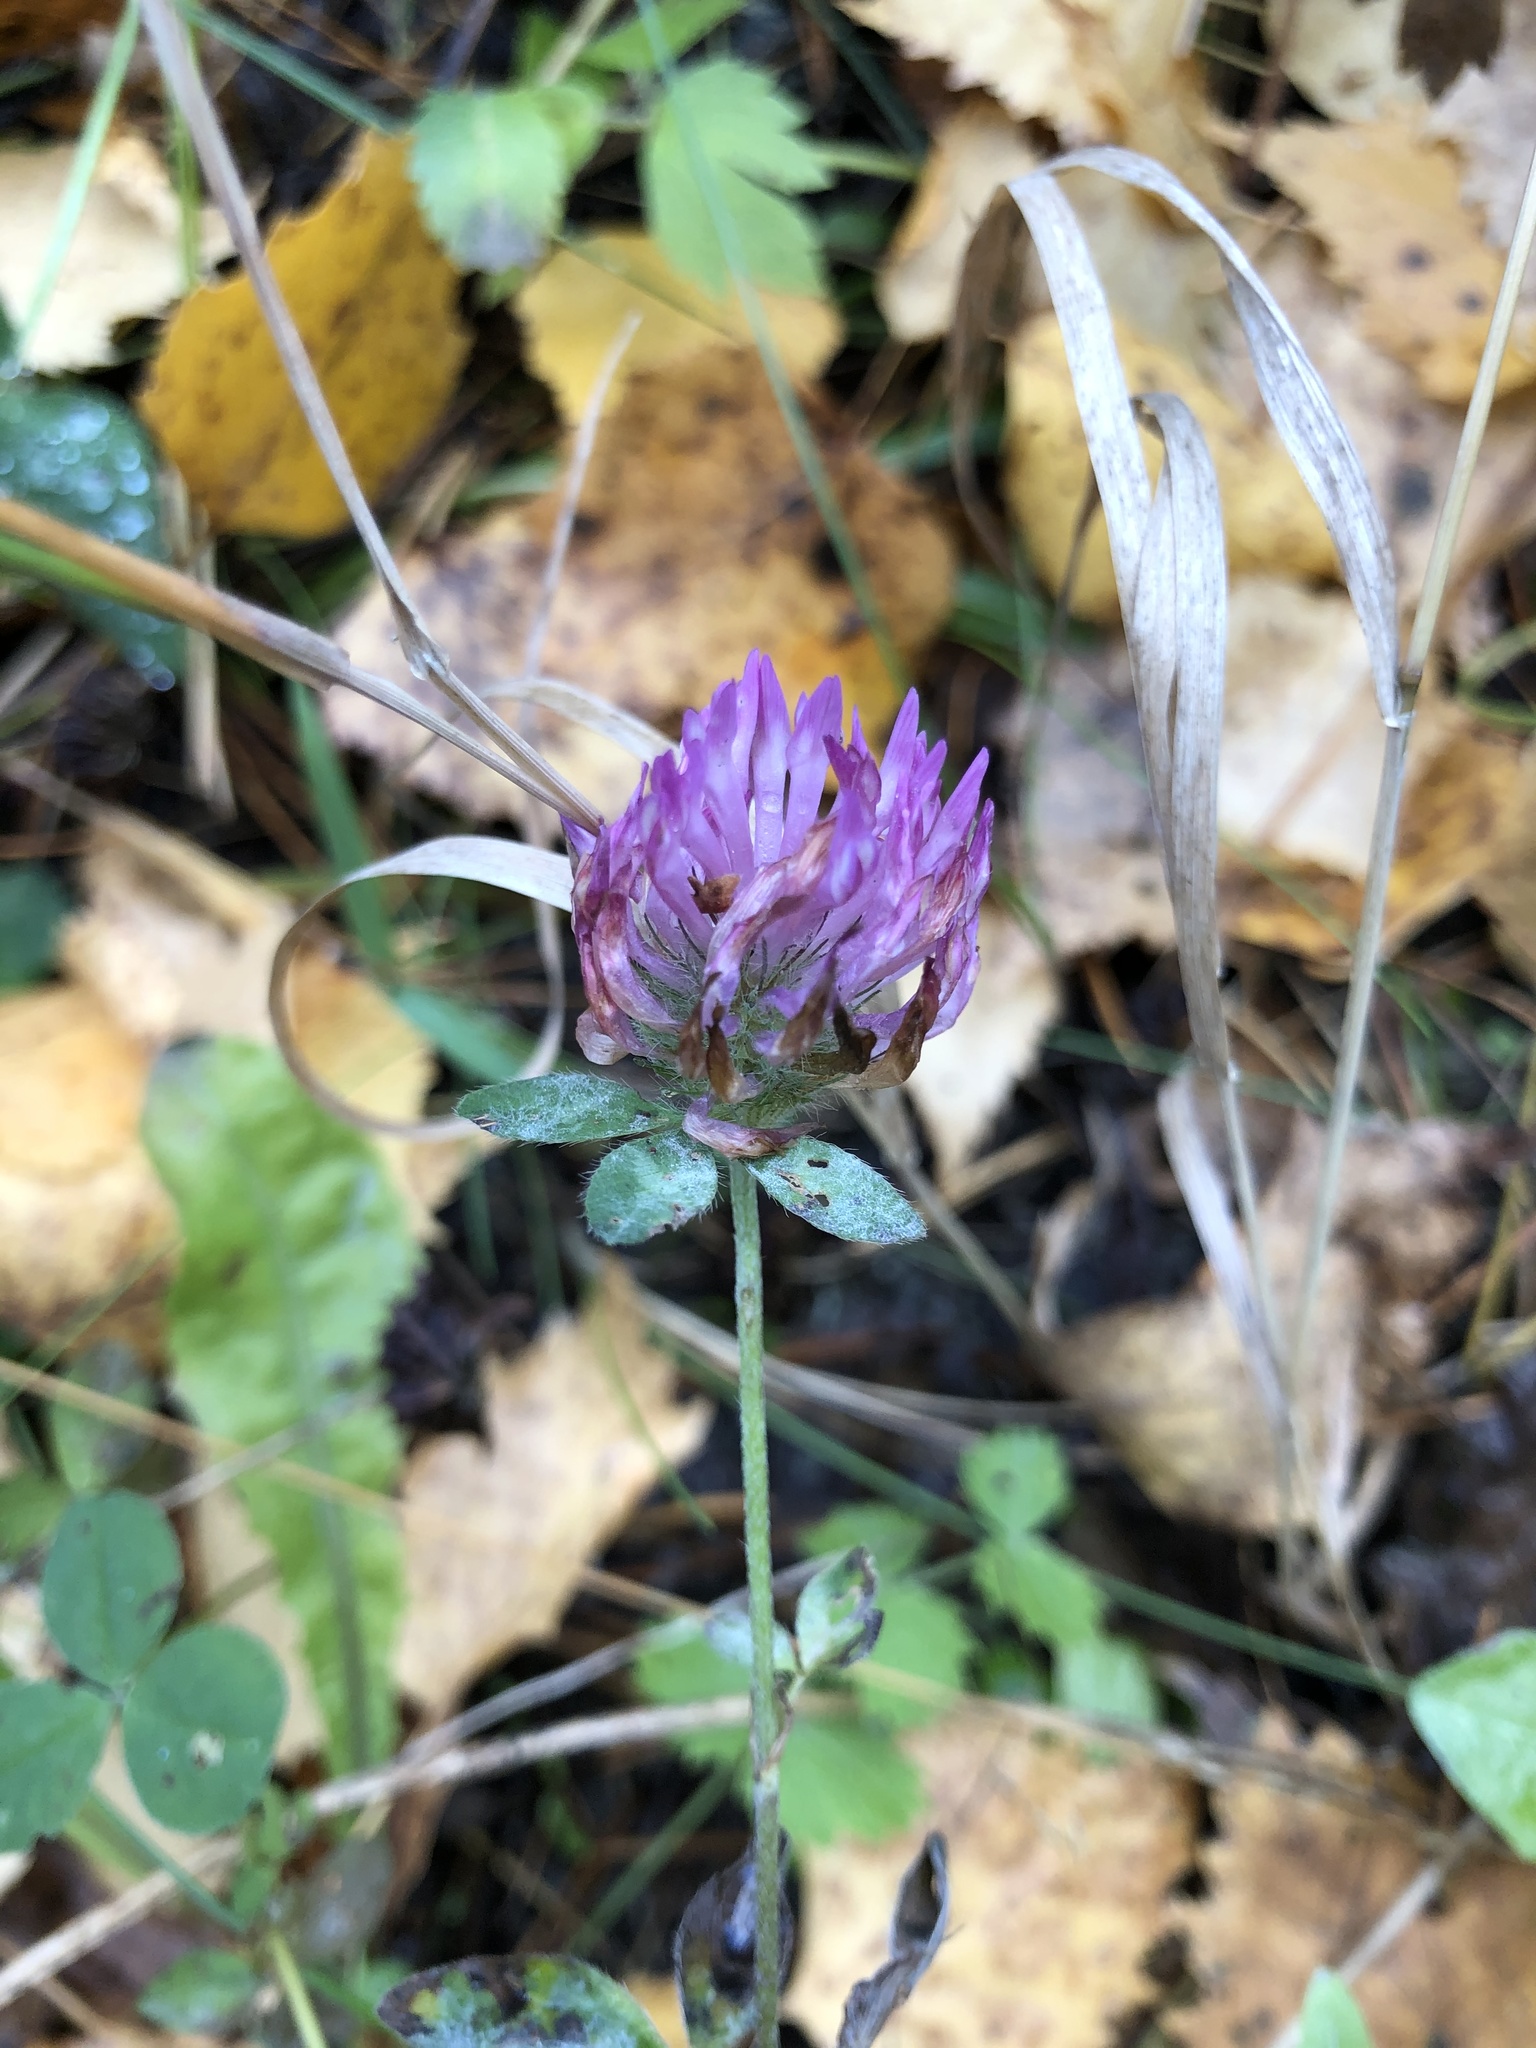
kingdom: Plantae
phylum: Tracheophyta
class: Magnoliopsida
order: Fabales
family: Fabaceae
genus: Trifolium
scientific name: Trifolium pratense
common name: Red clover
